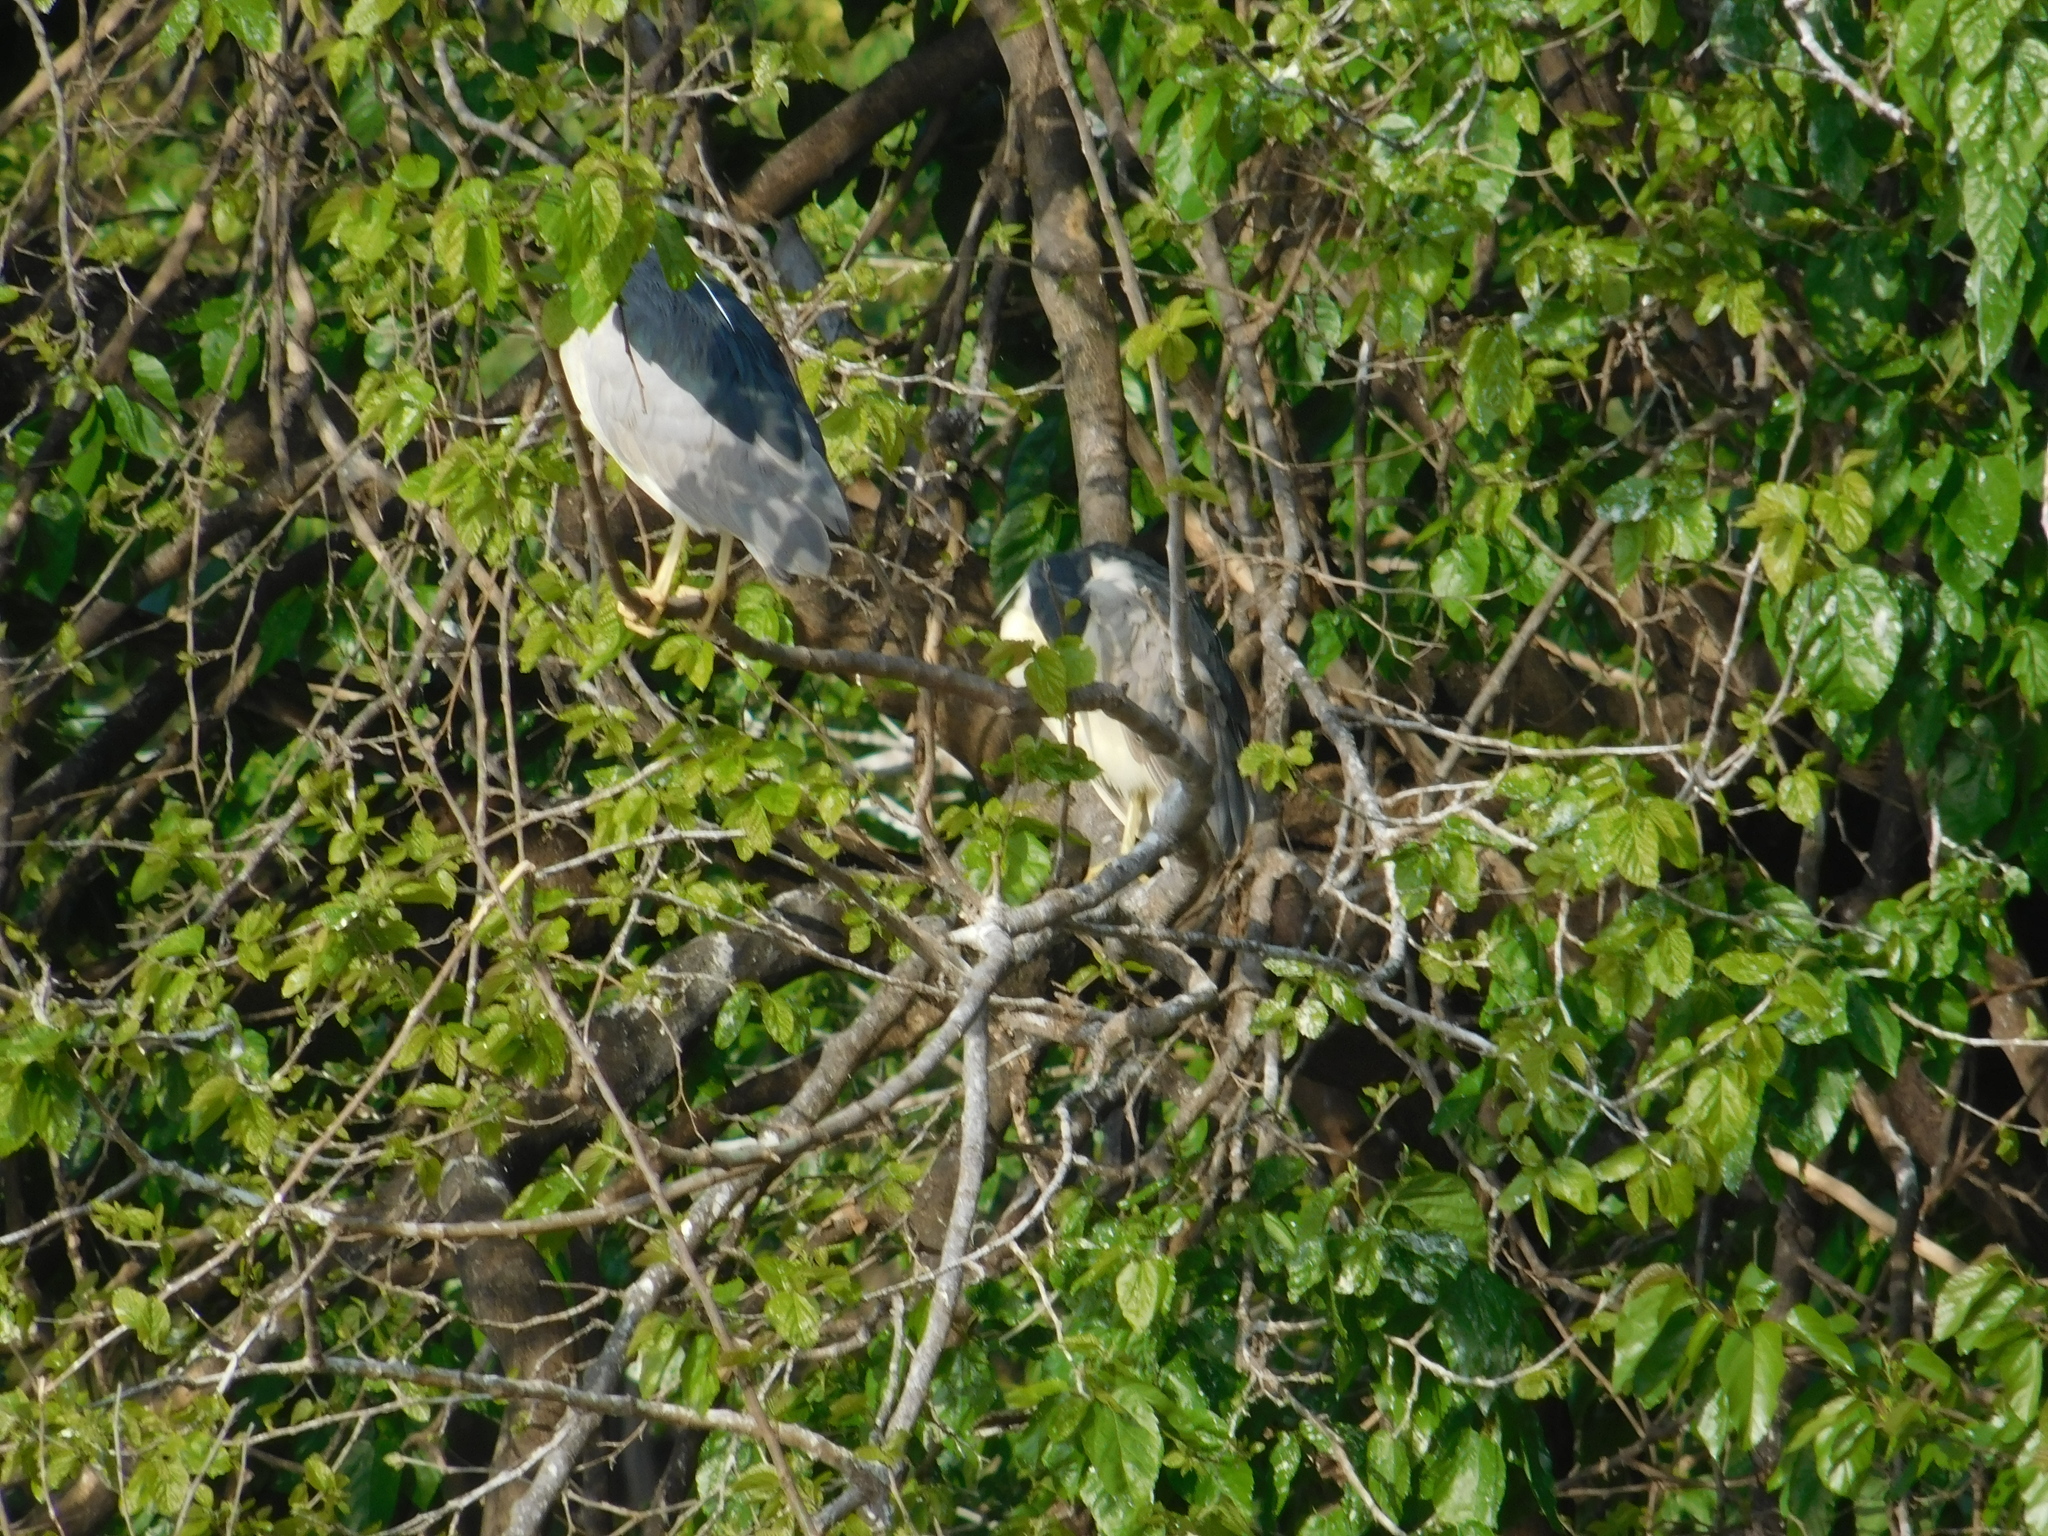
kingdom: Animalia
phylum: Chordata
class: Aves
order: Pelecaniformes
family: Ardeidae
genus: Nycticorax
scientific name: Nycticorax nycticorax
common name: Black-crowned night heron
